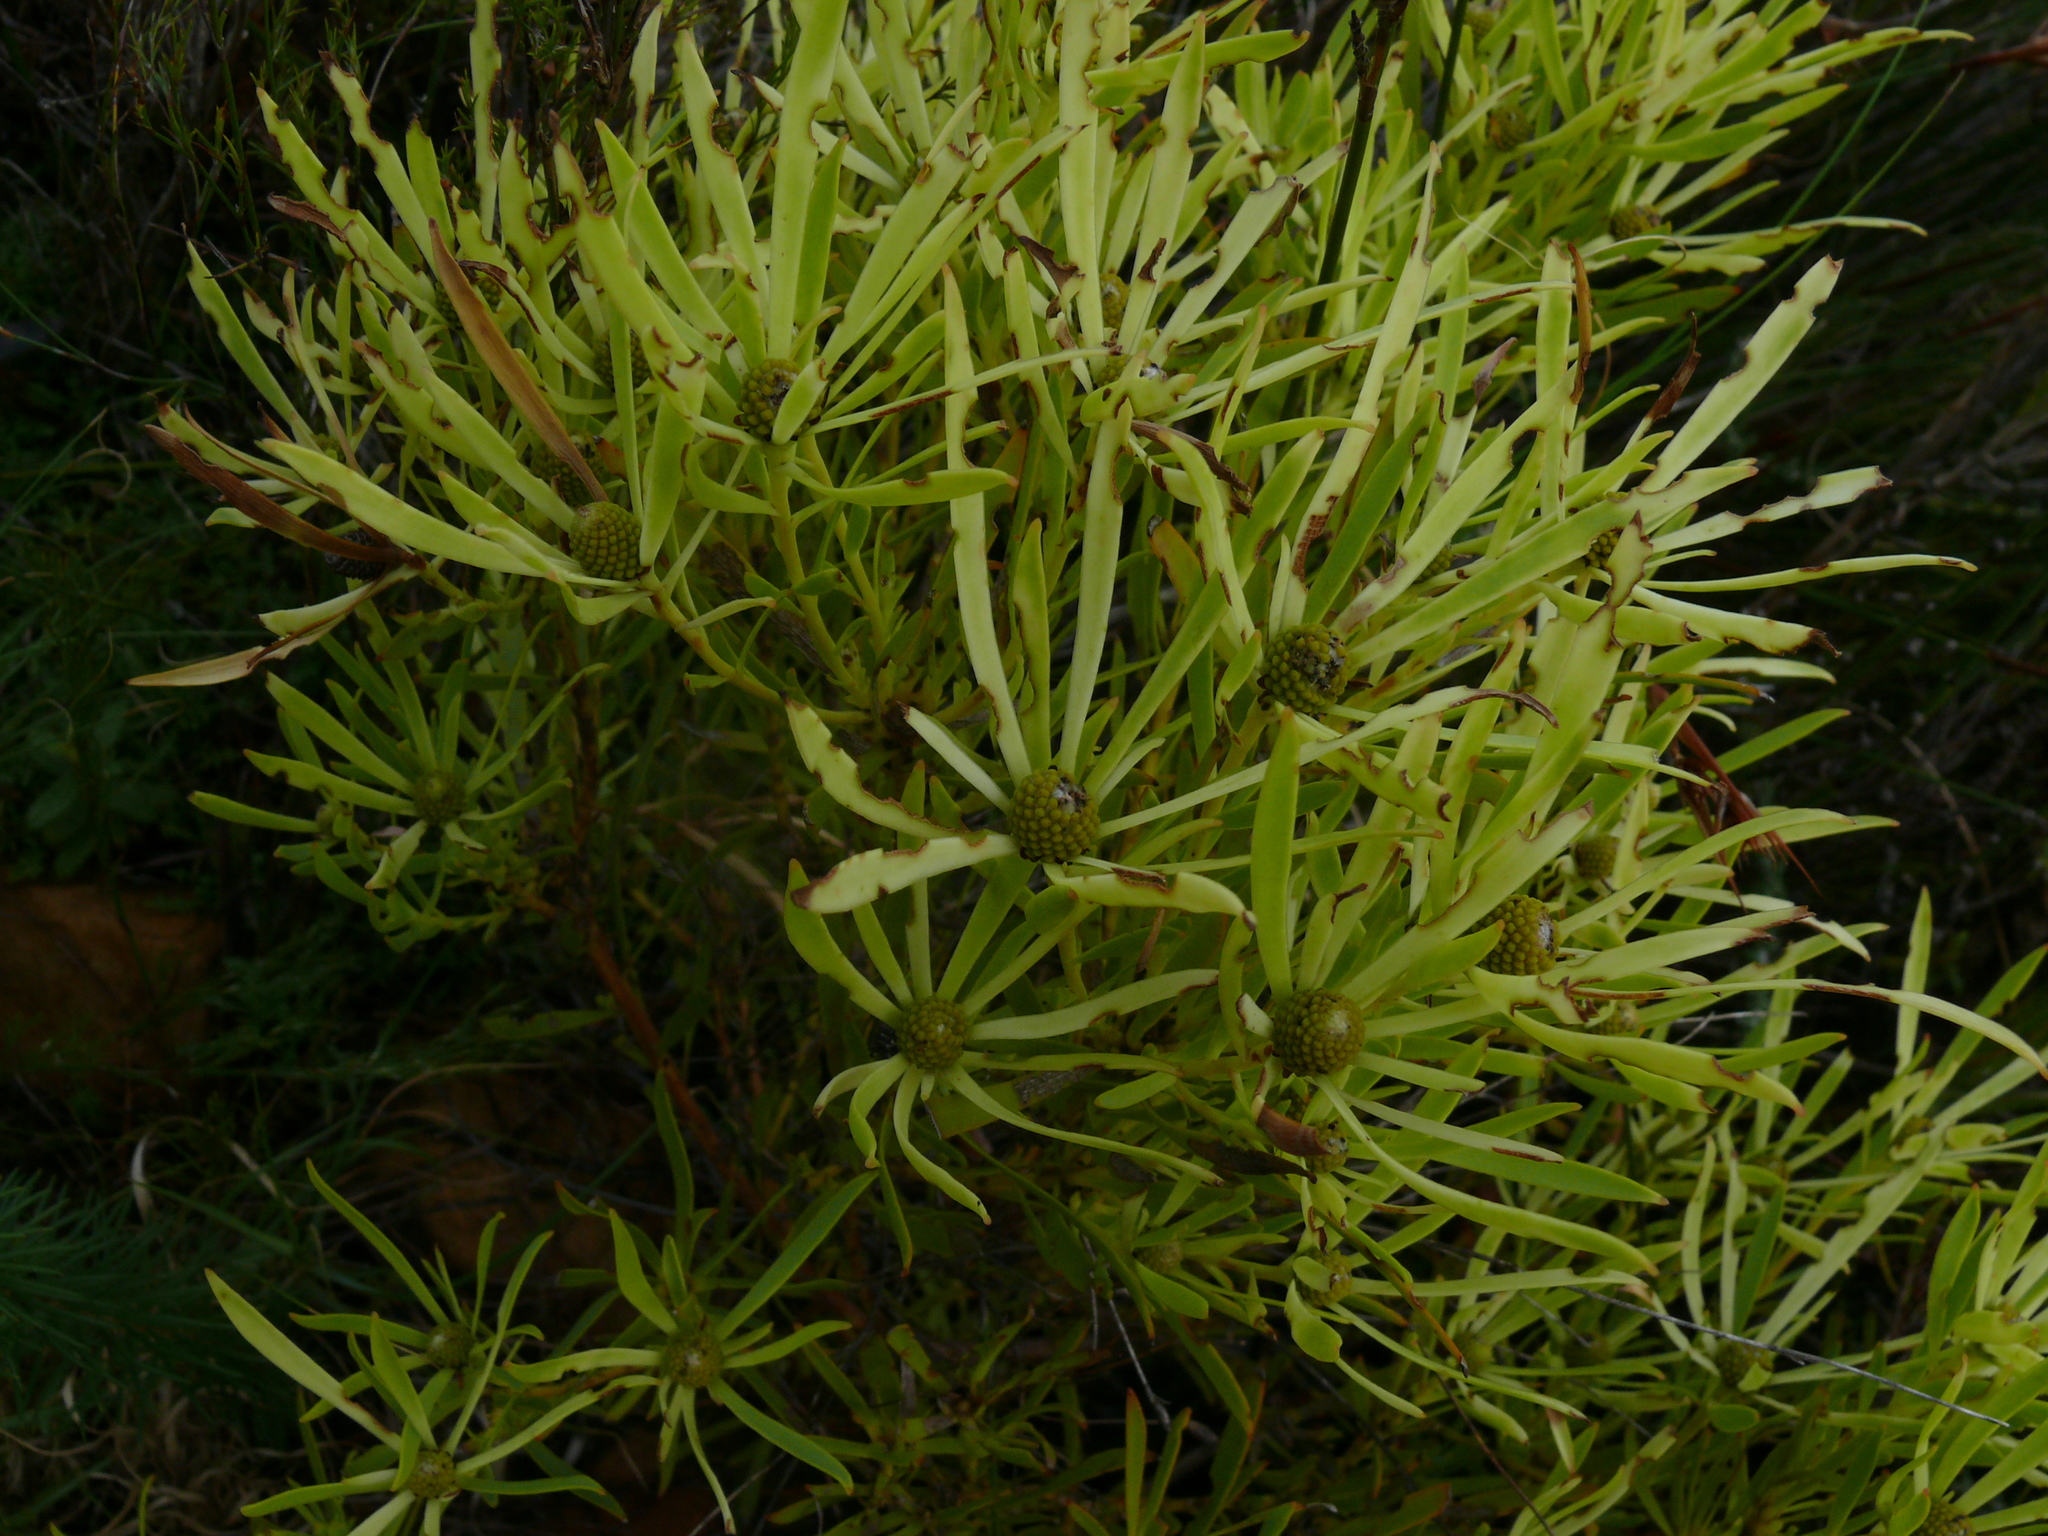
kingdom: Plantae
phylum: Tracheophyta
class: Magnoliopsida
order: Proteales
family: Proteaceae
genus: Leucadendron
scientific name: Leucadendron salignum
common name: Common sunshine conebush
